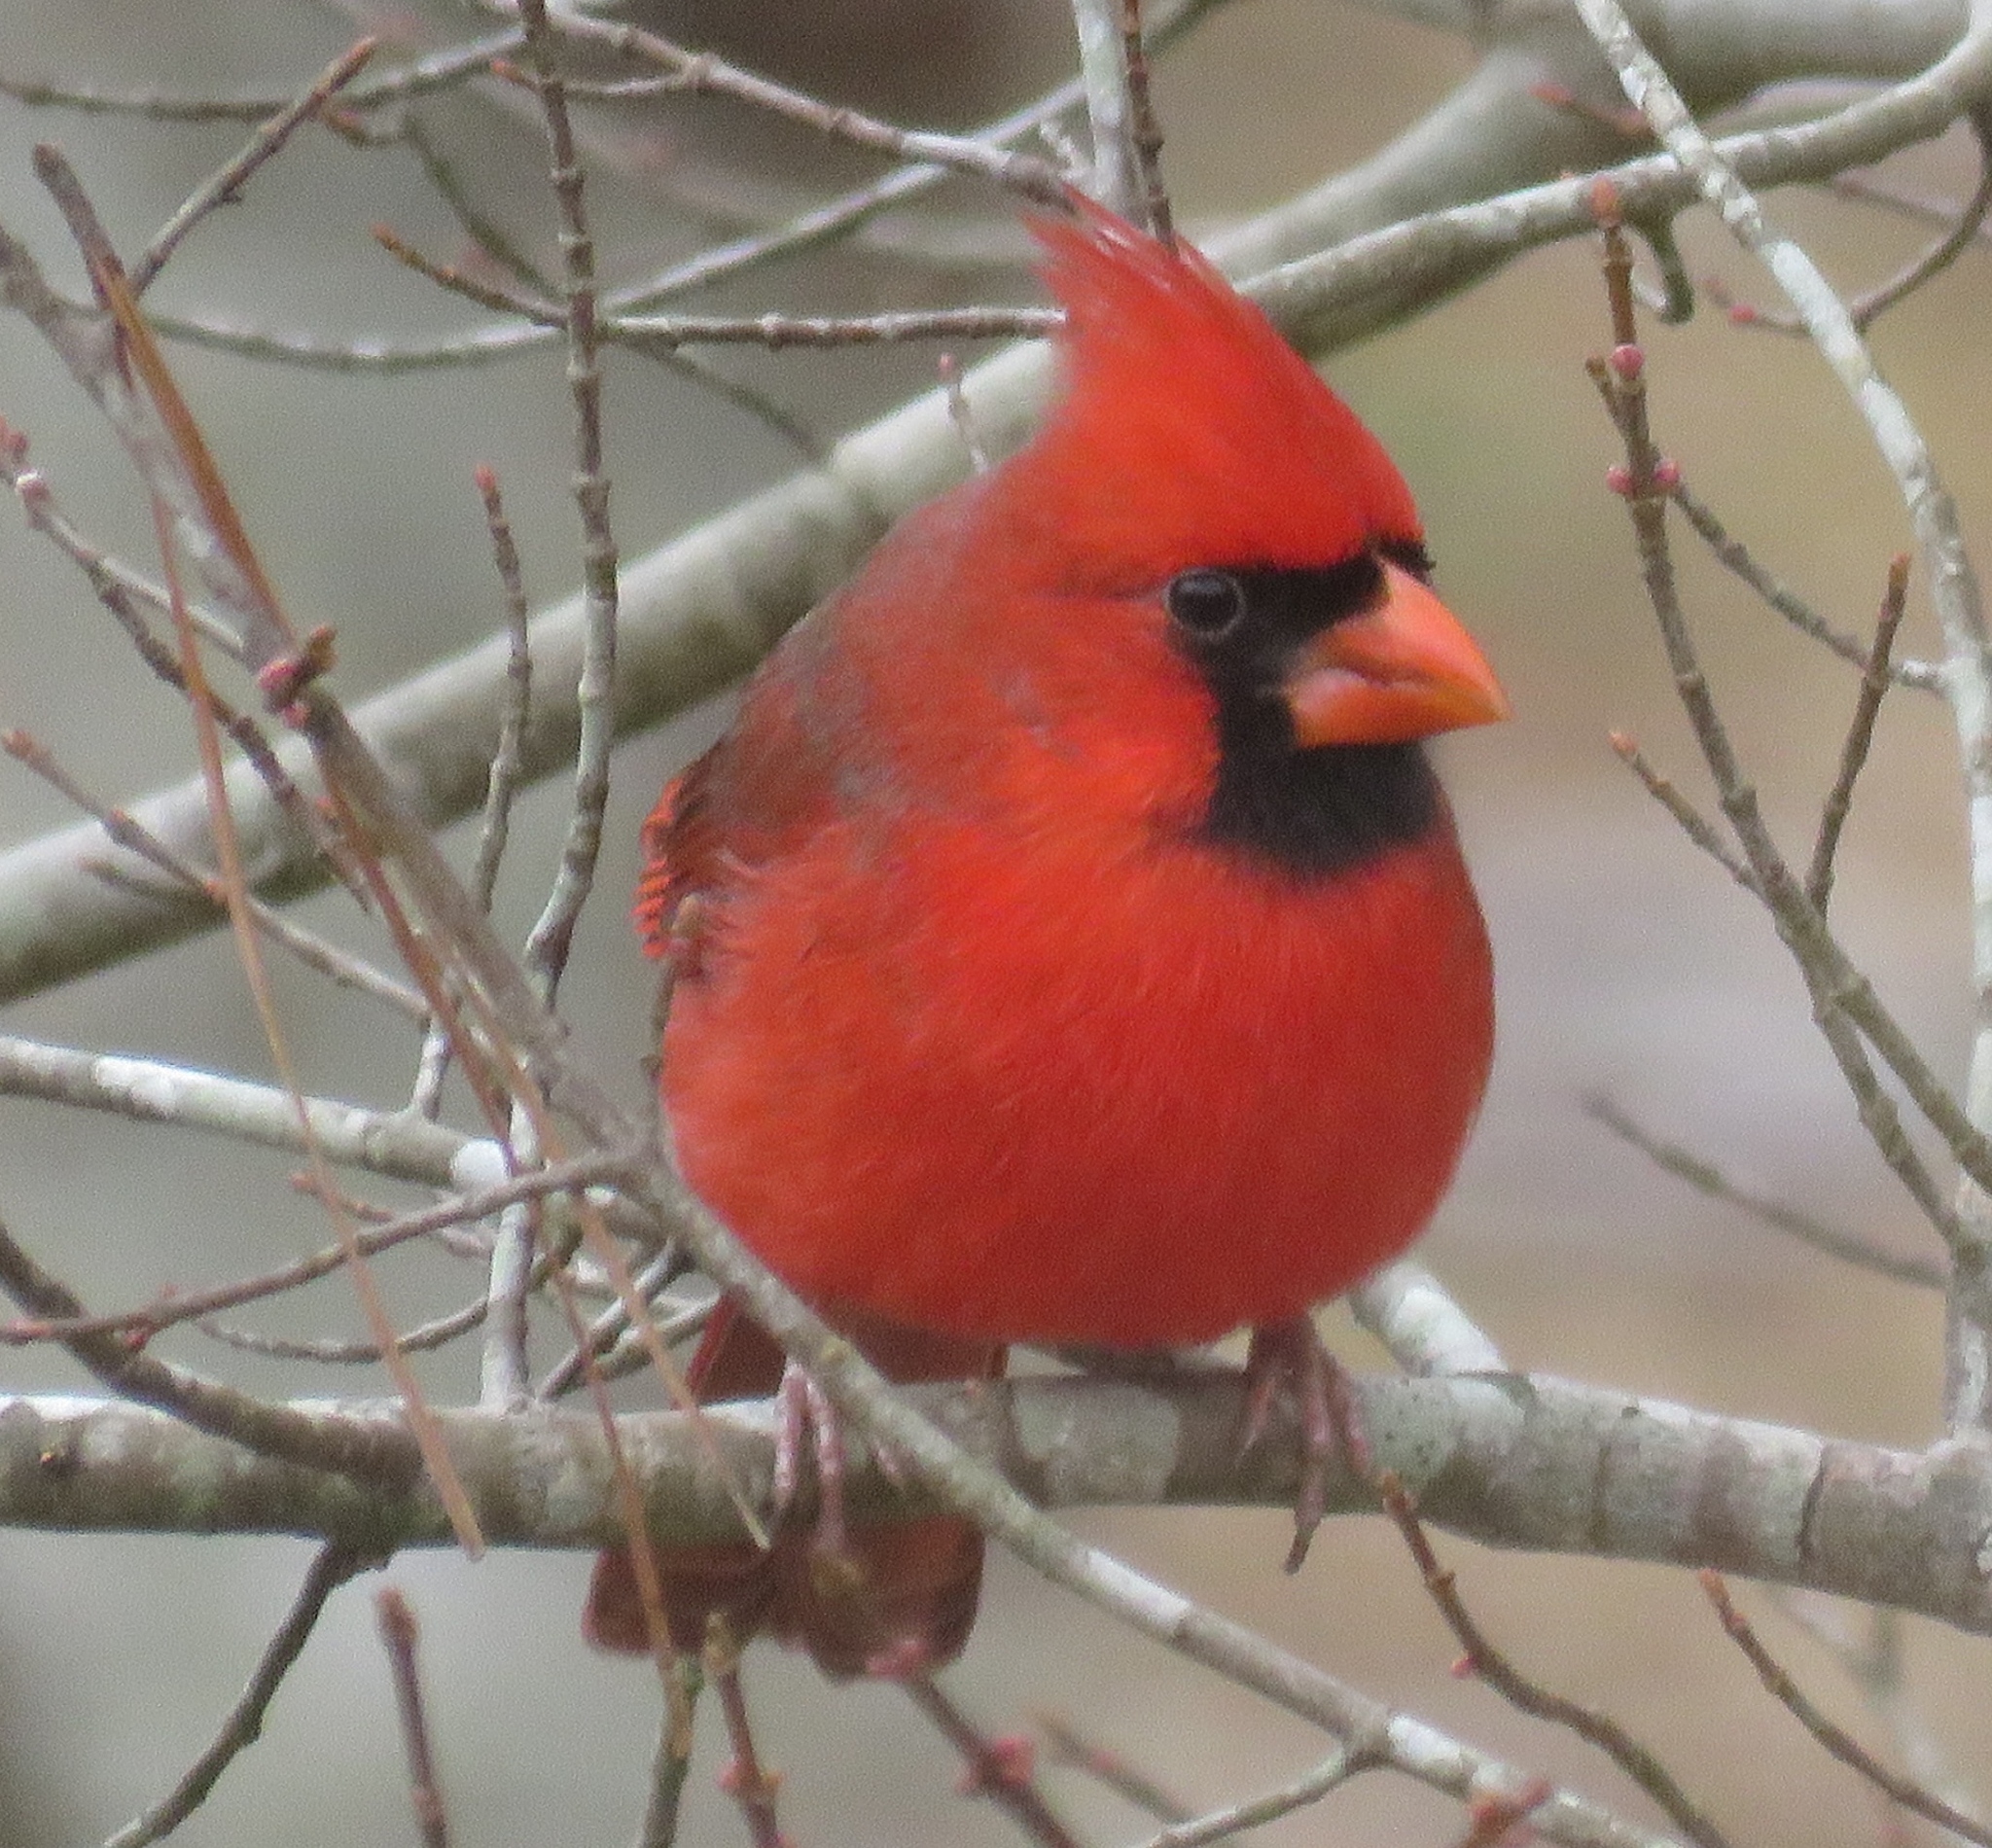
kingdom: Animalia
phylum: Chordata
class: Aves
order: Passeriformes
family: Cardinalidae
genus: Cardinalis
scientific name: Cardinalis cardinalis
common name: Northern cardinal
